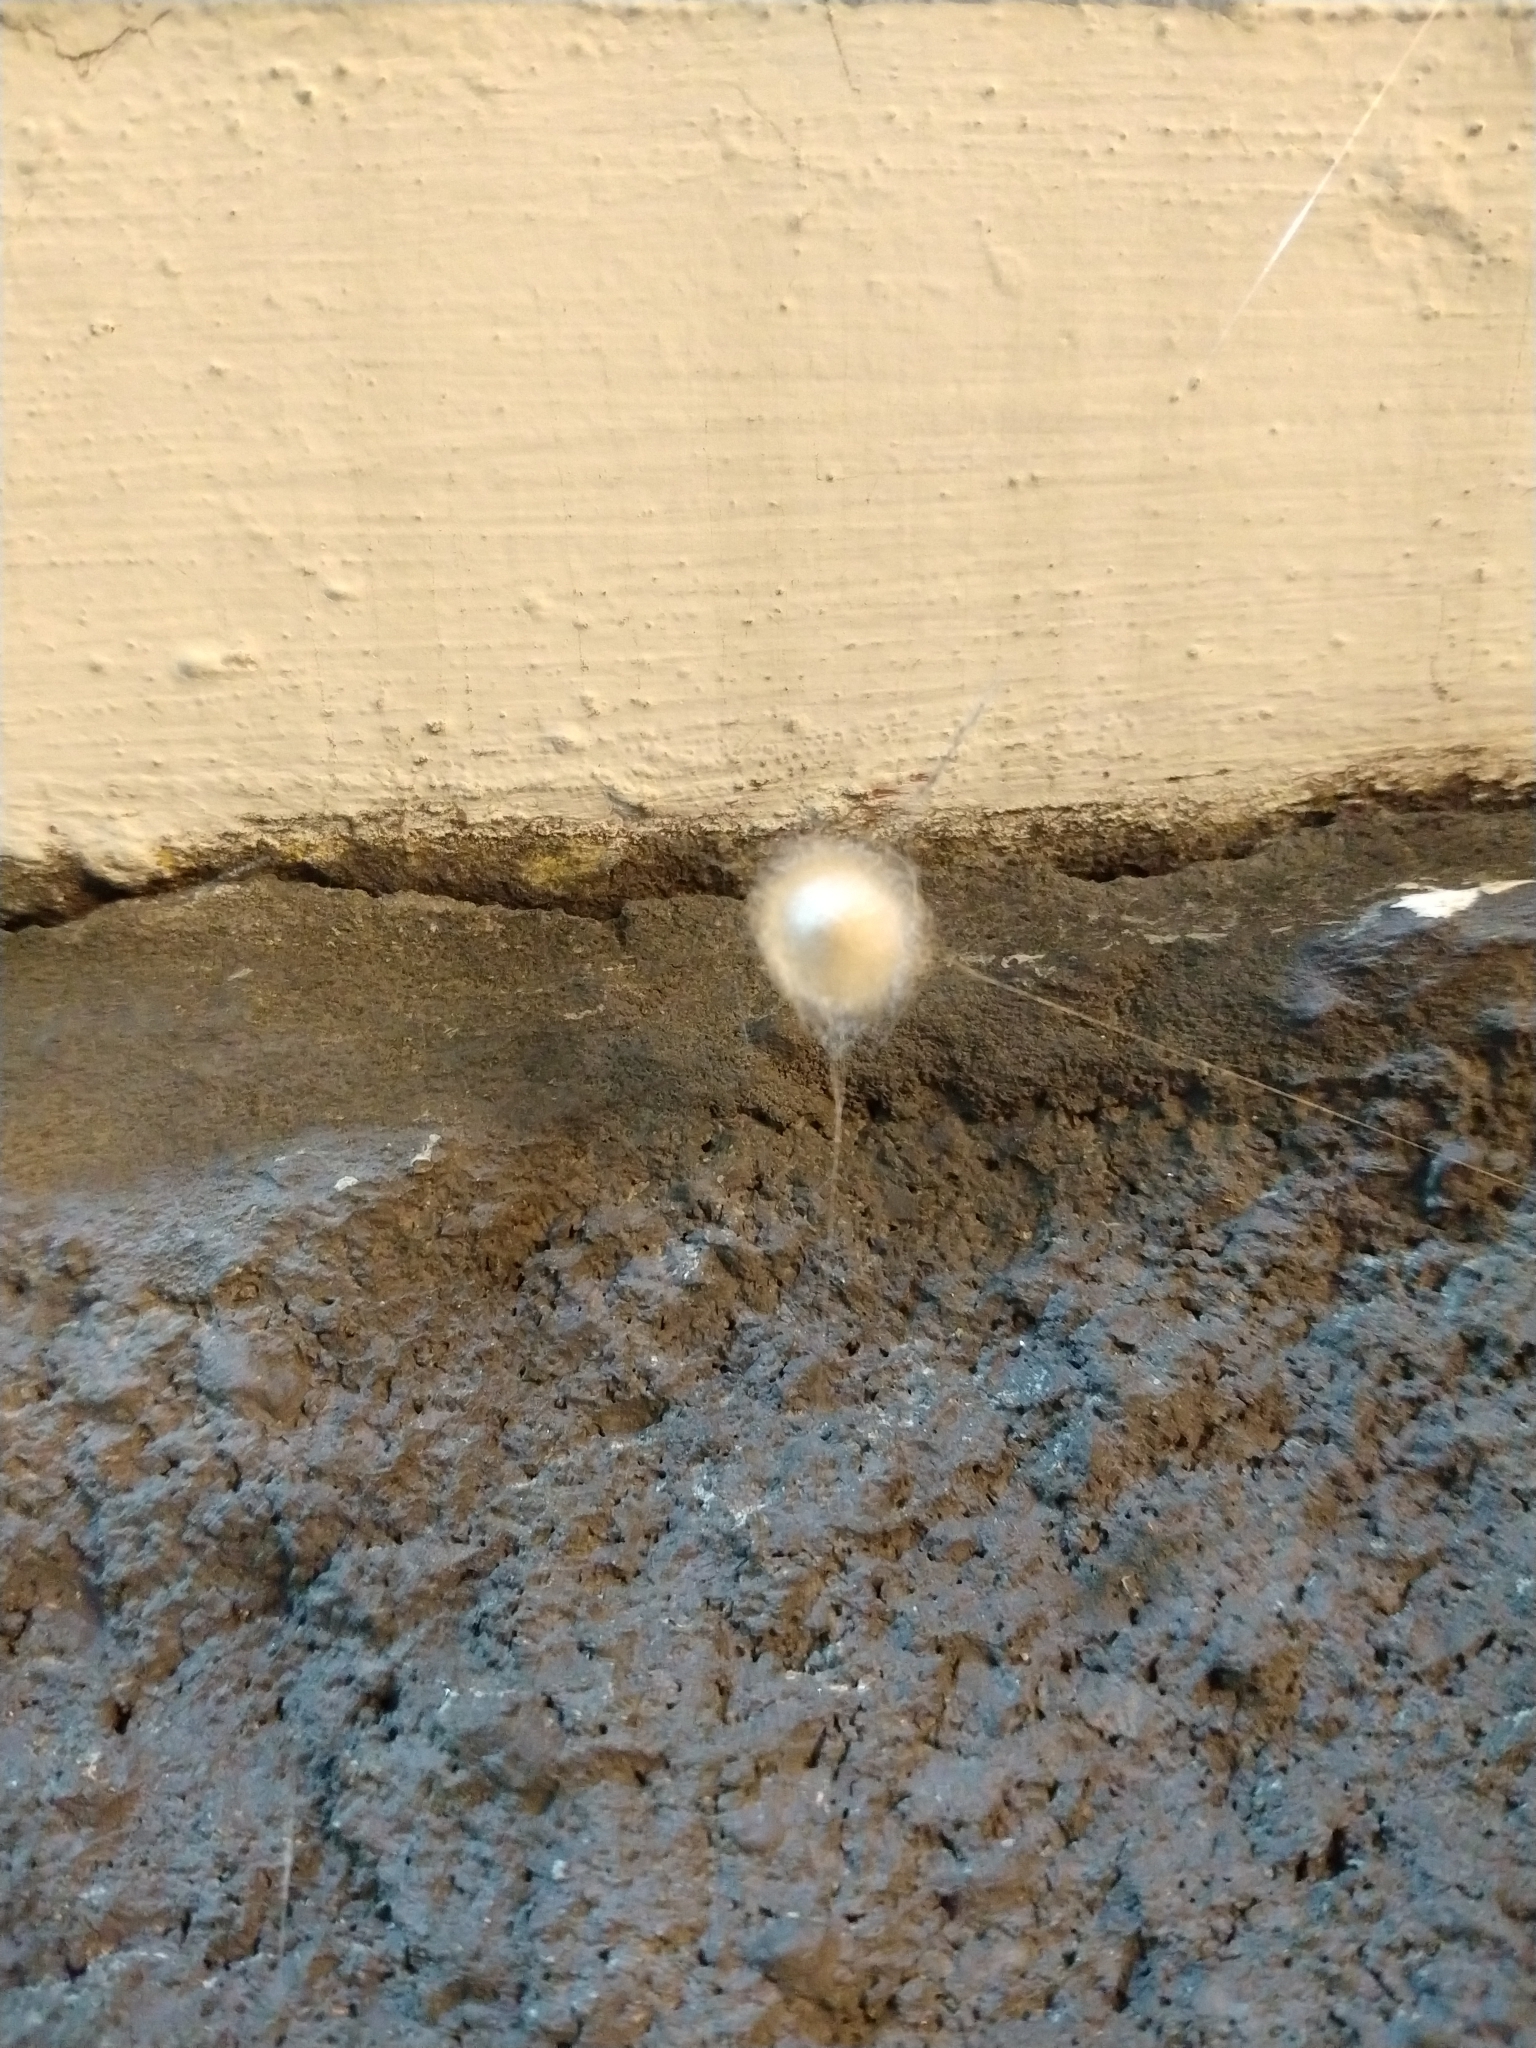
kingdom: Animalia
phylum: Arthropoda
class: Arachnida
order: Araneae
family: Araneidae
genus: Metepeira
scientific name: Metepeira
